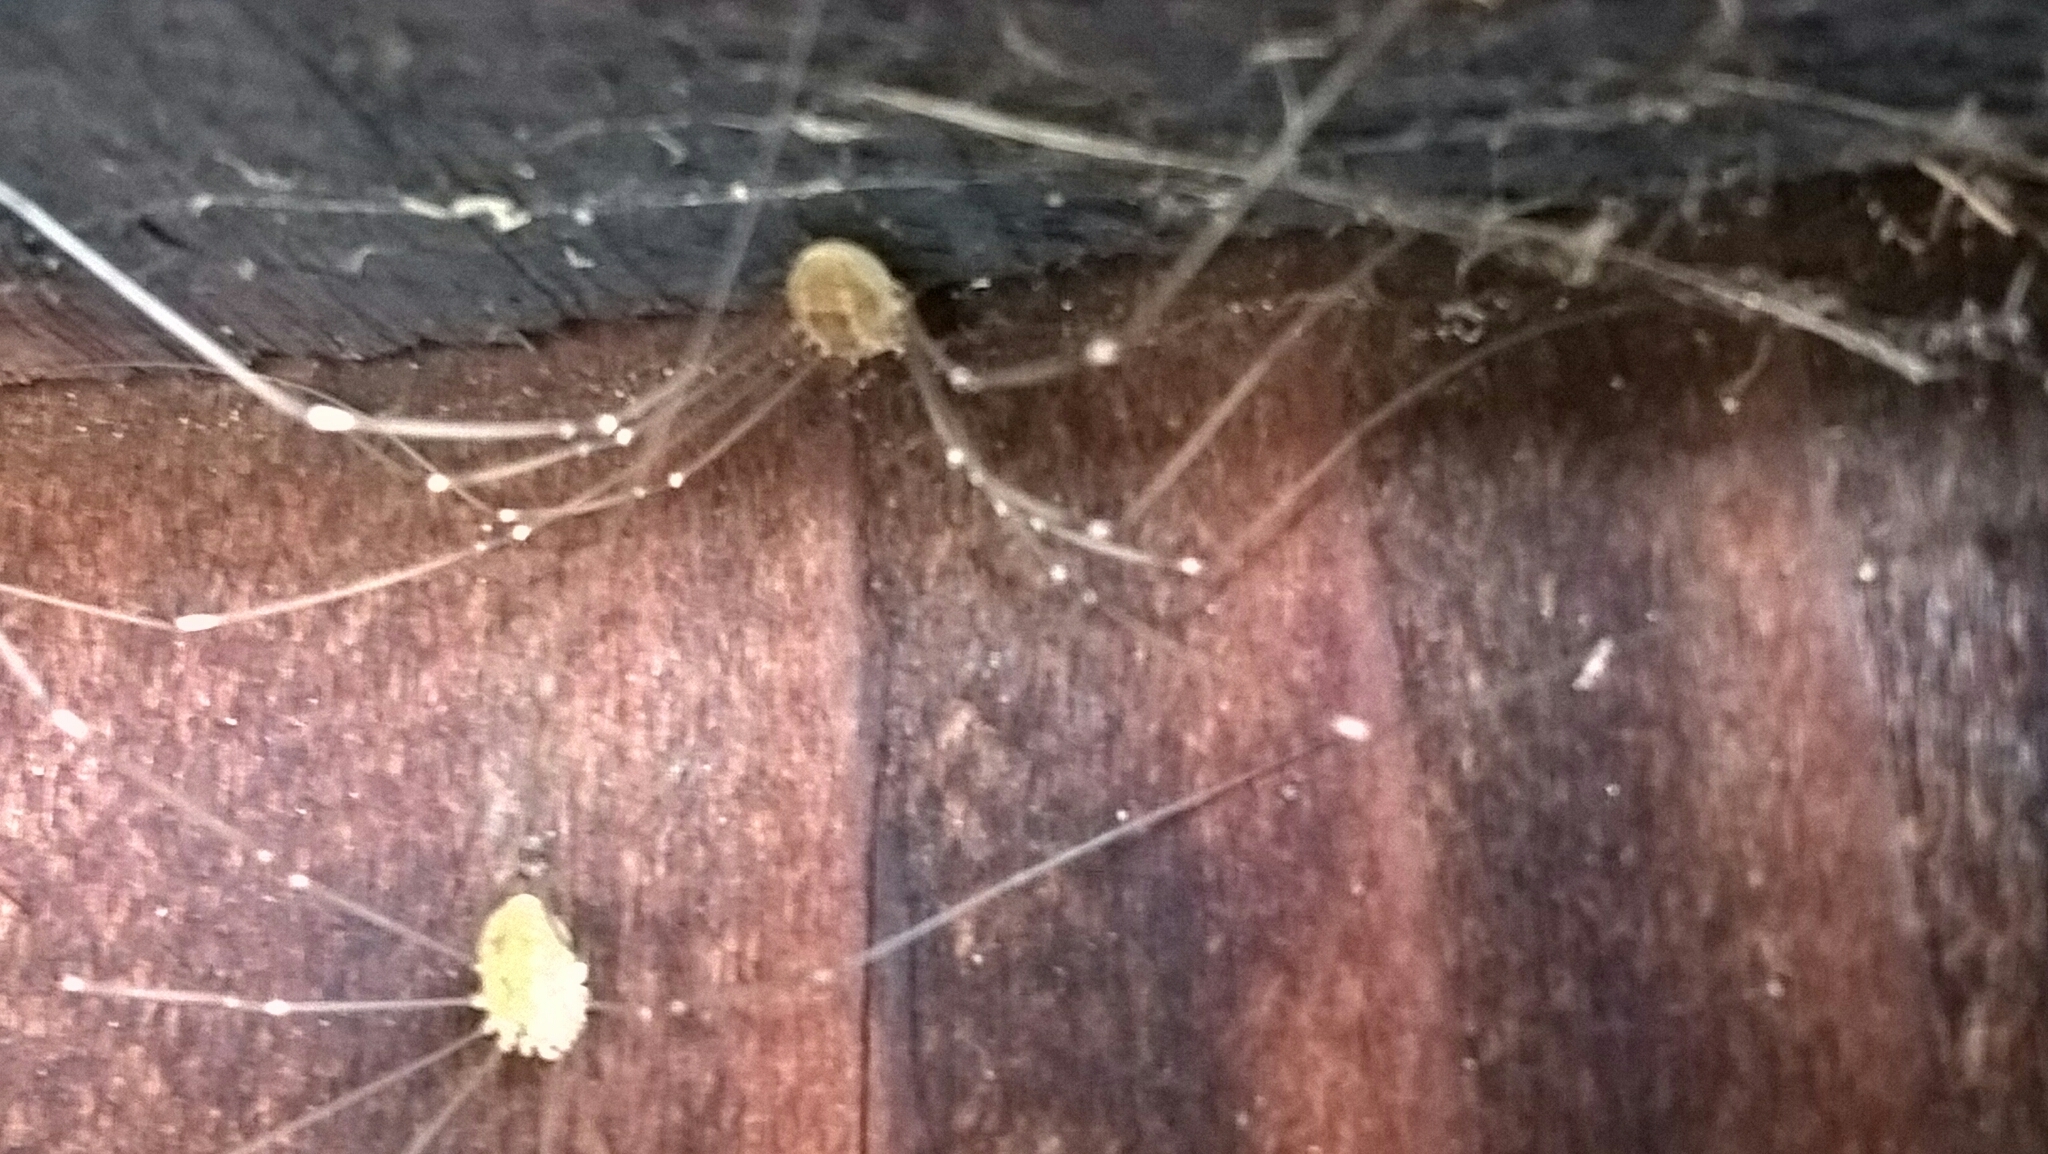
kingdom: Animalia
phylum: Arthropoda
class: Arachnida
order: Opiliones
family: Sclerosomatidae
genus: Leiobunum
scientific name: Leiobunum rotundum
